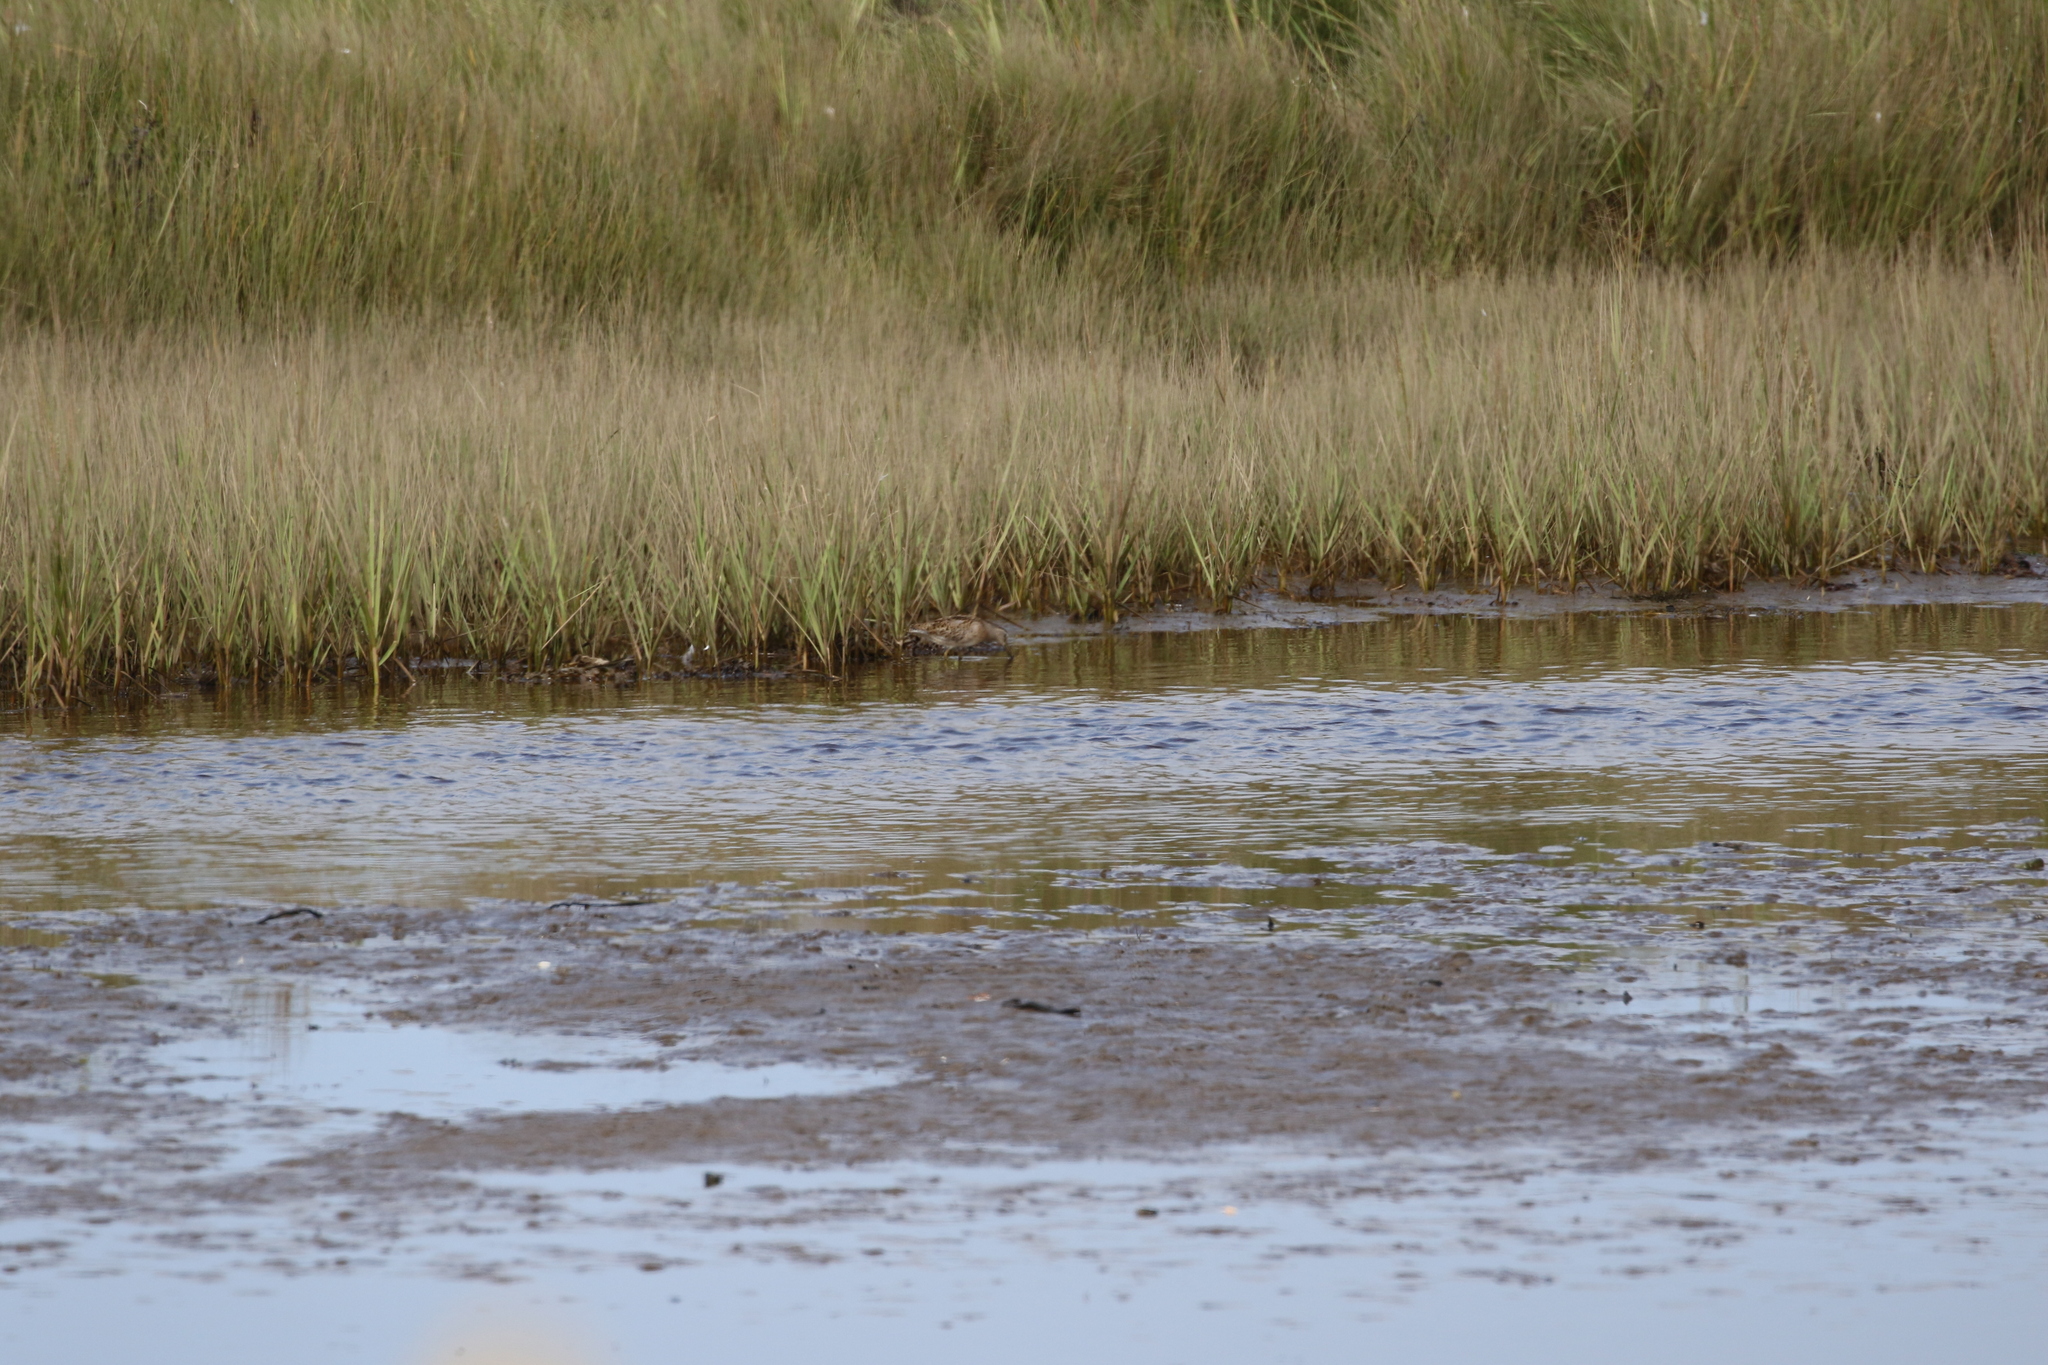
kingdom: Animalia
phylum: Chordata
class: Aves
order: Charadriiformes
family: Scolopacidae
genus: Limnodromus
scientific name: Limnodromus griseus
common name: Short-billed dowitcher
